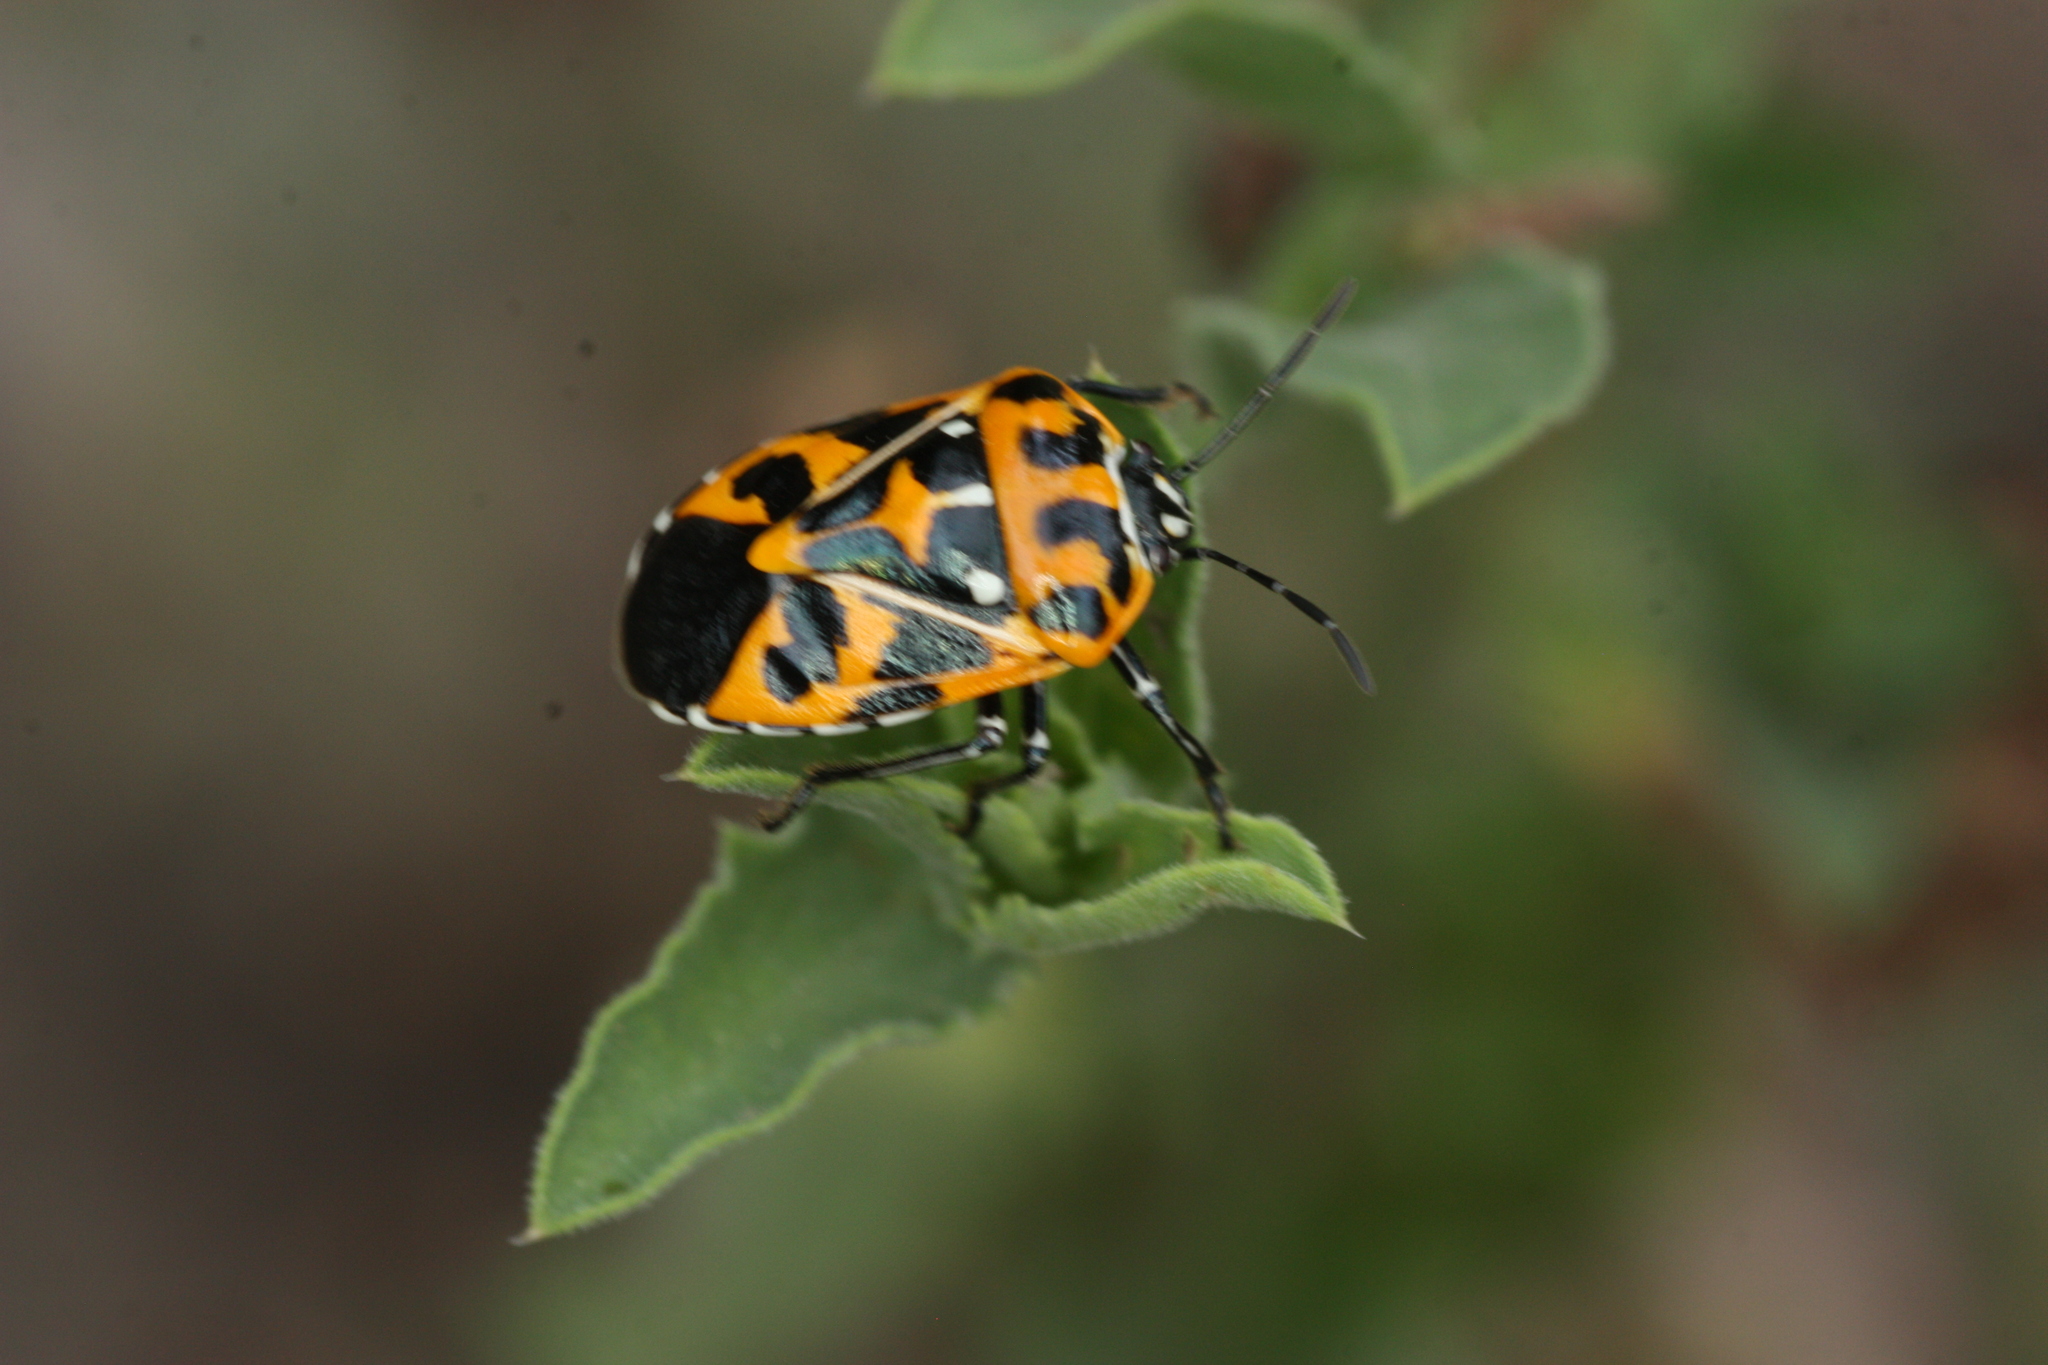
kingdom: Animalia
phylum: Arthropoda
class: Insecta
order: Hemiptera
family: Pentatomidae
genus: Murgantia
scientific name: Murgantia histrionica
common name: Harlequin bug
